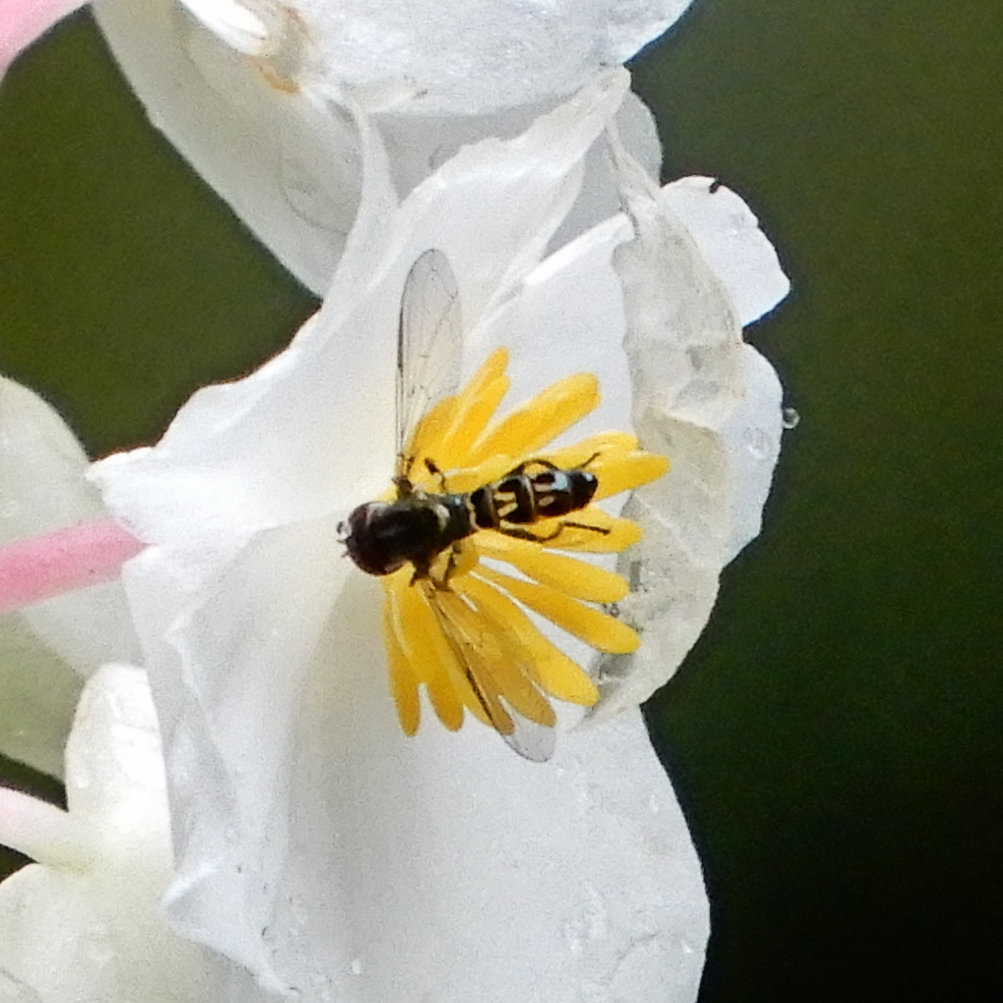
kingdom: Animalia
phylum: Arthropoda
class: Insecta
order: Diptera
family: Syrphidae
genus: Toxomerus
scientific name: Toxomerus violaceus
